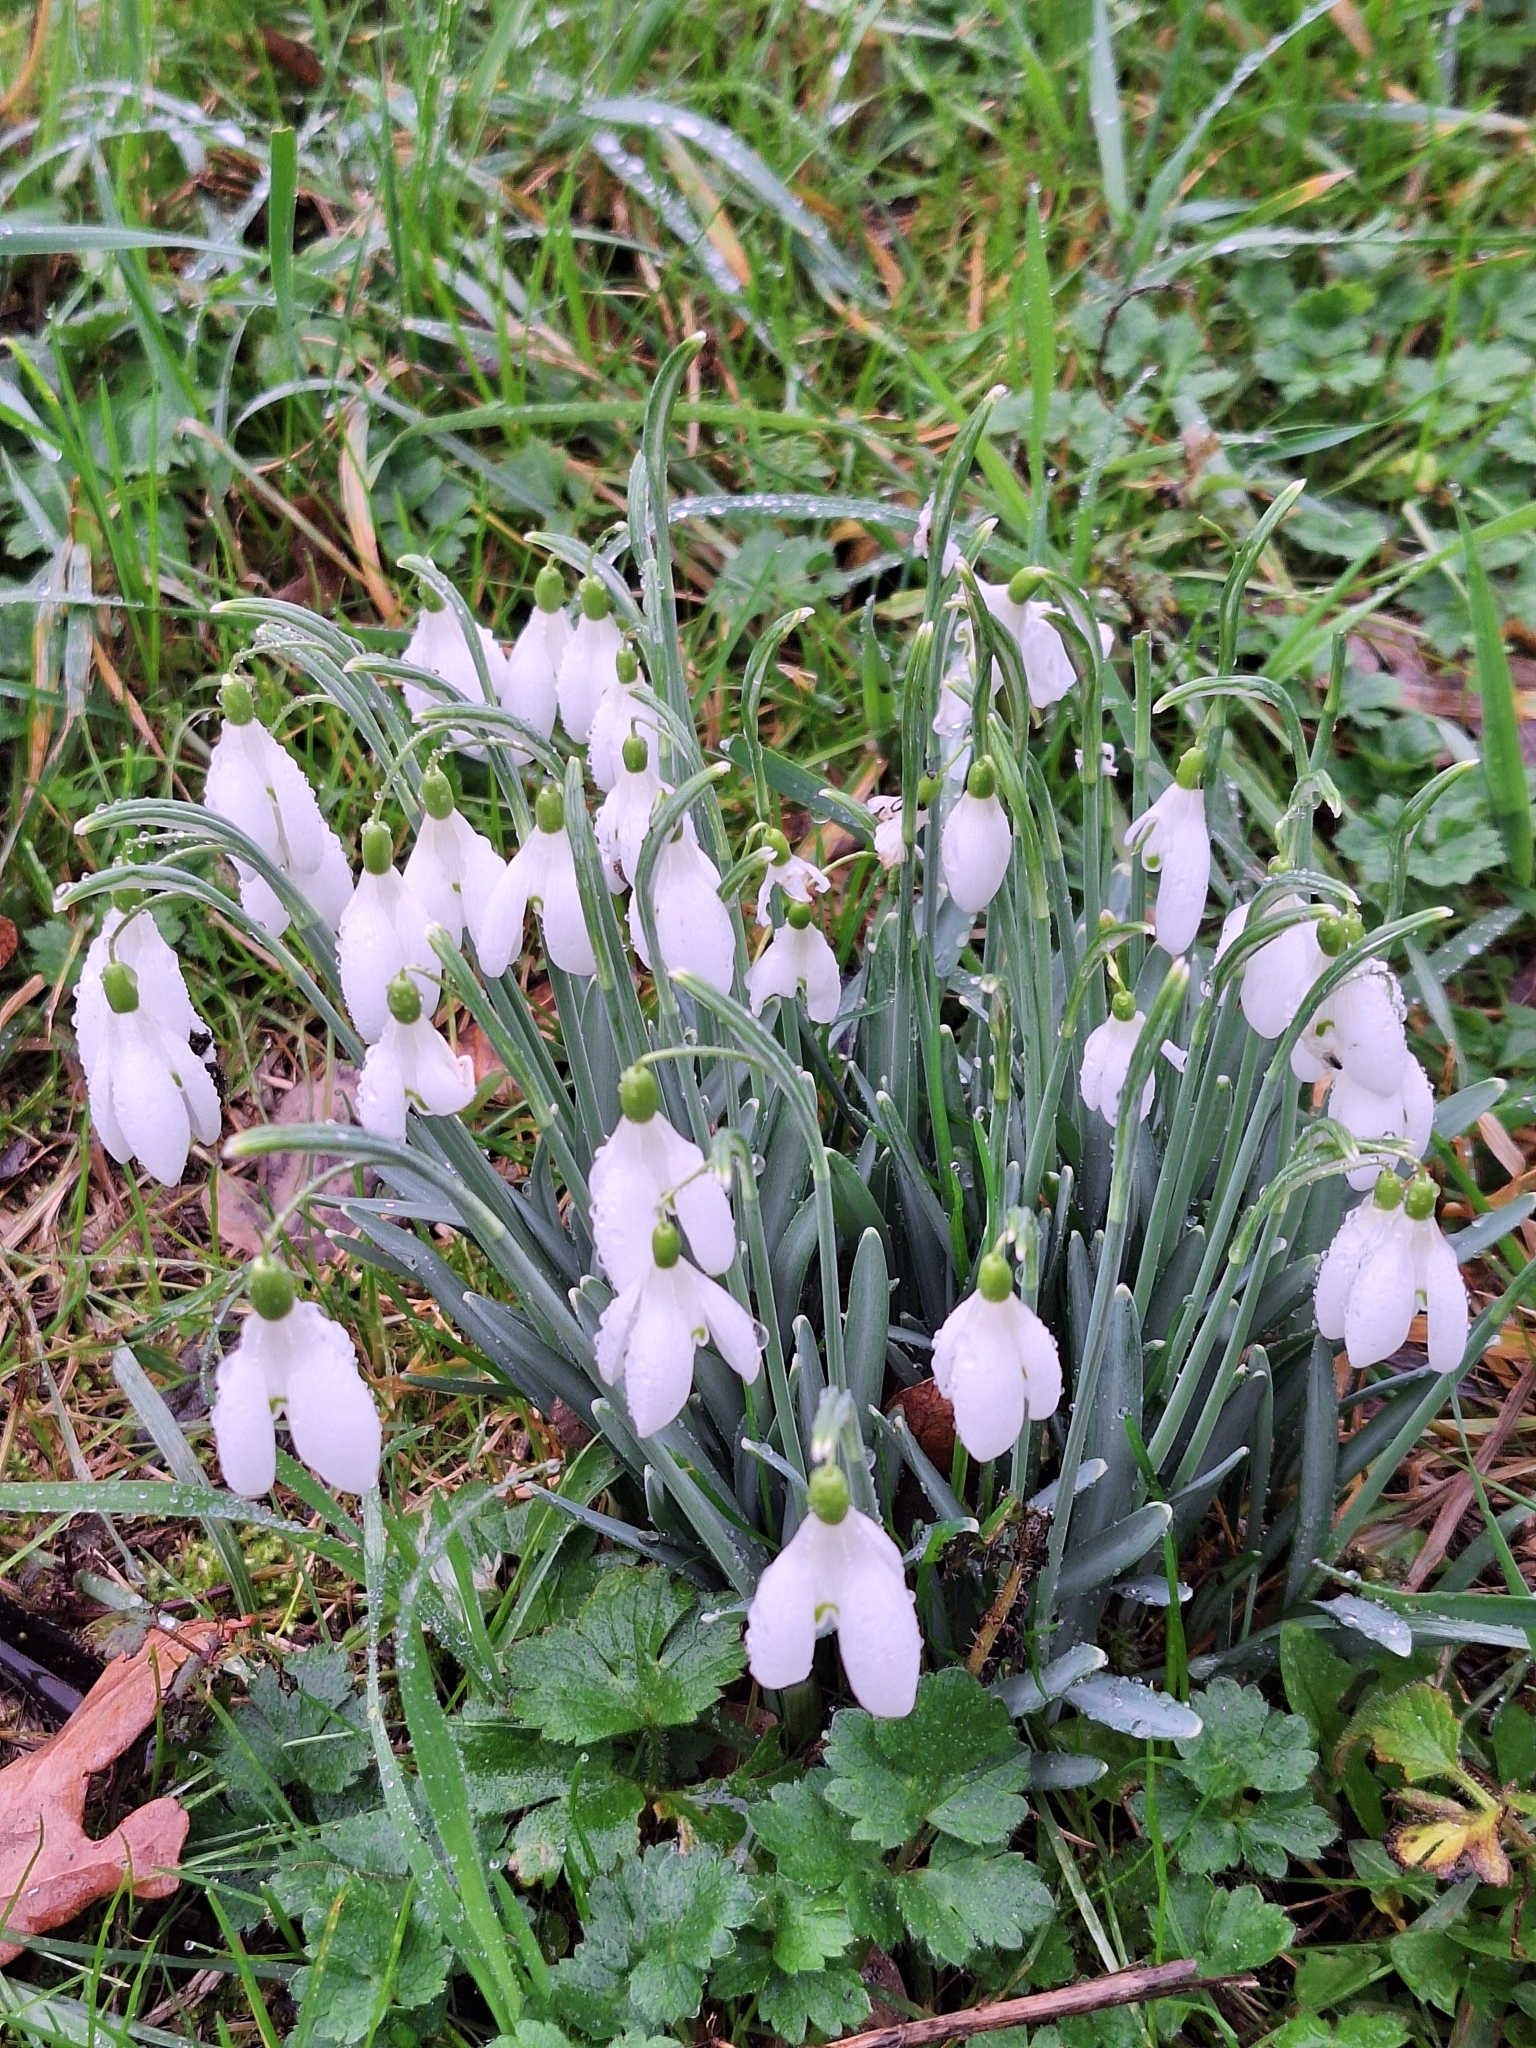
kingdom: Plantae
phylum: Tracheophyta
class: Liliopsida
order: Asparagales
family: Amaryllidaceae
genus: Galanthus
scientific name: Galanthus nivalis
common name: Snowdrop
